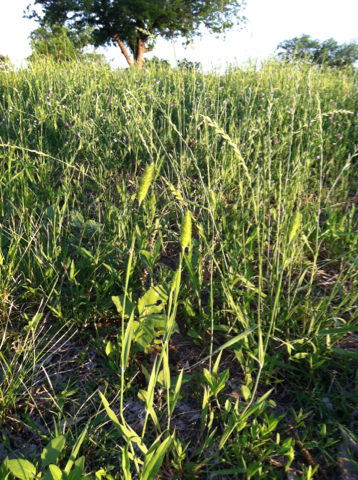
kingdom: Plantae
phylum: Tracheophyta
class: Liliopsida
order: Poales
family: Poaceae
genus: Phalaris
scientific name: Phalaris caroliniana
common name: May grass
